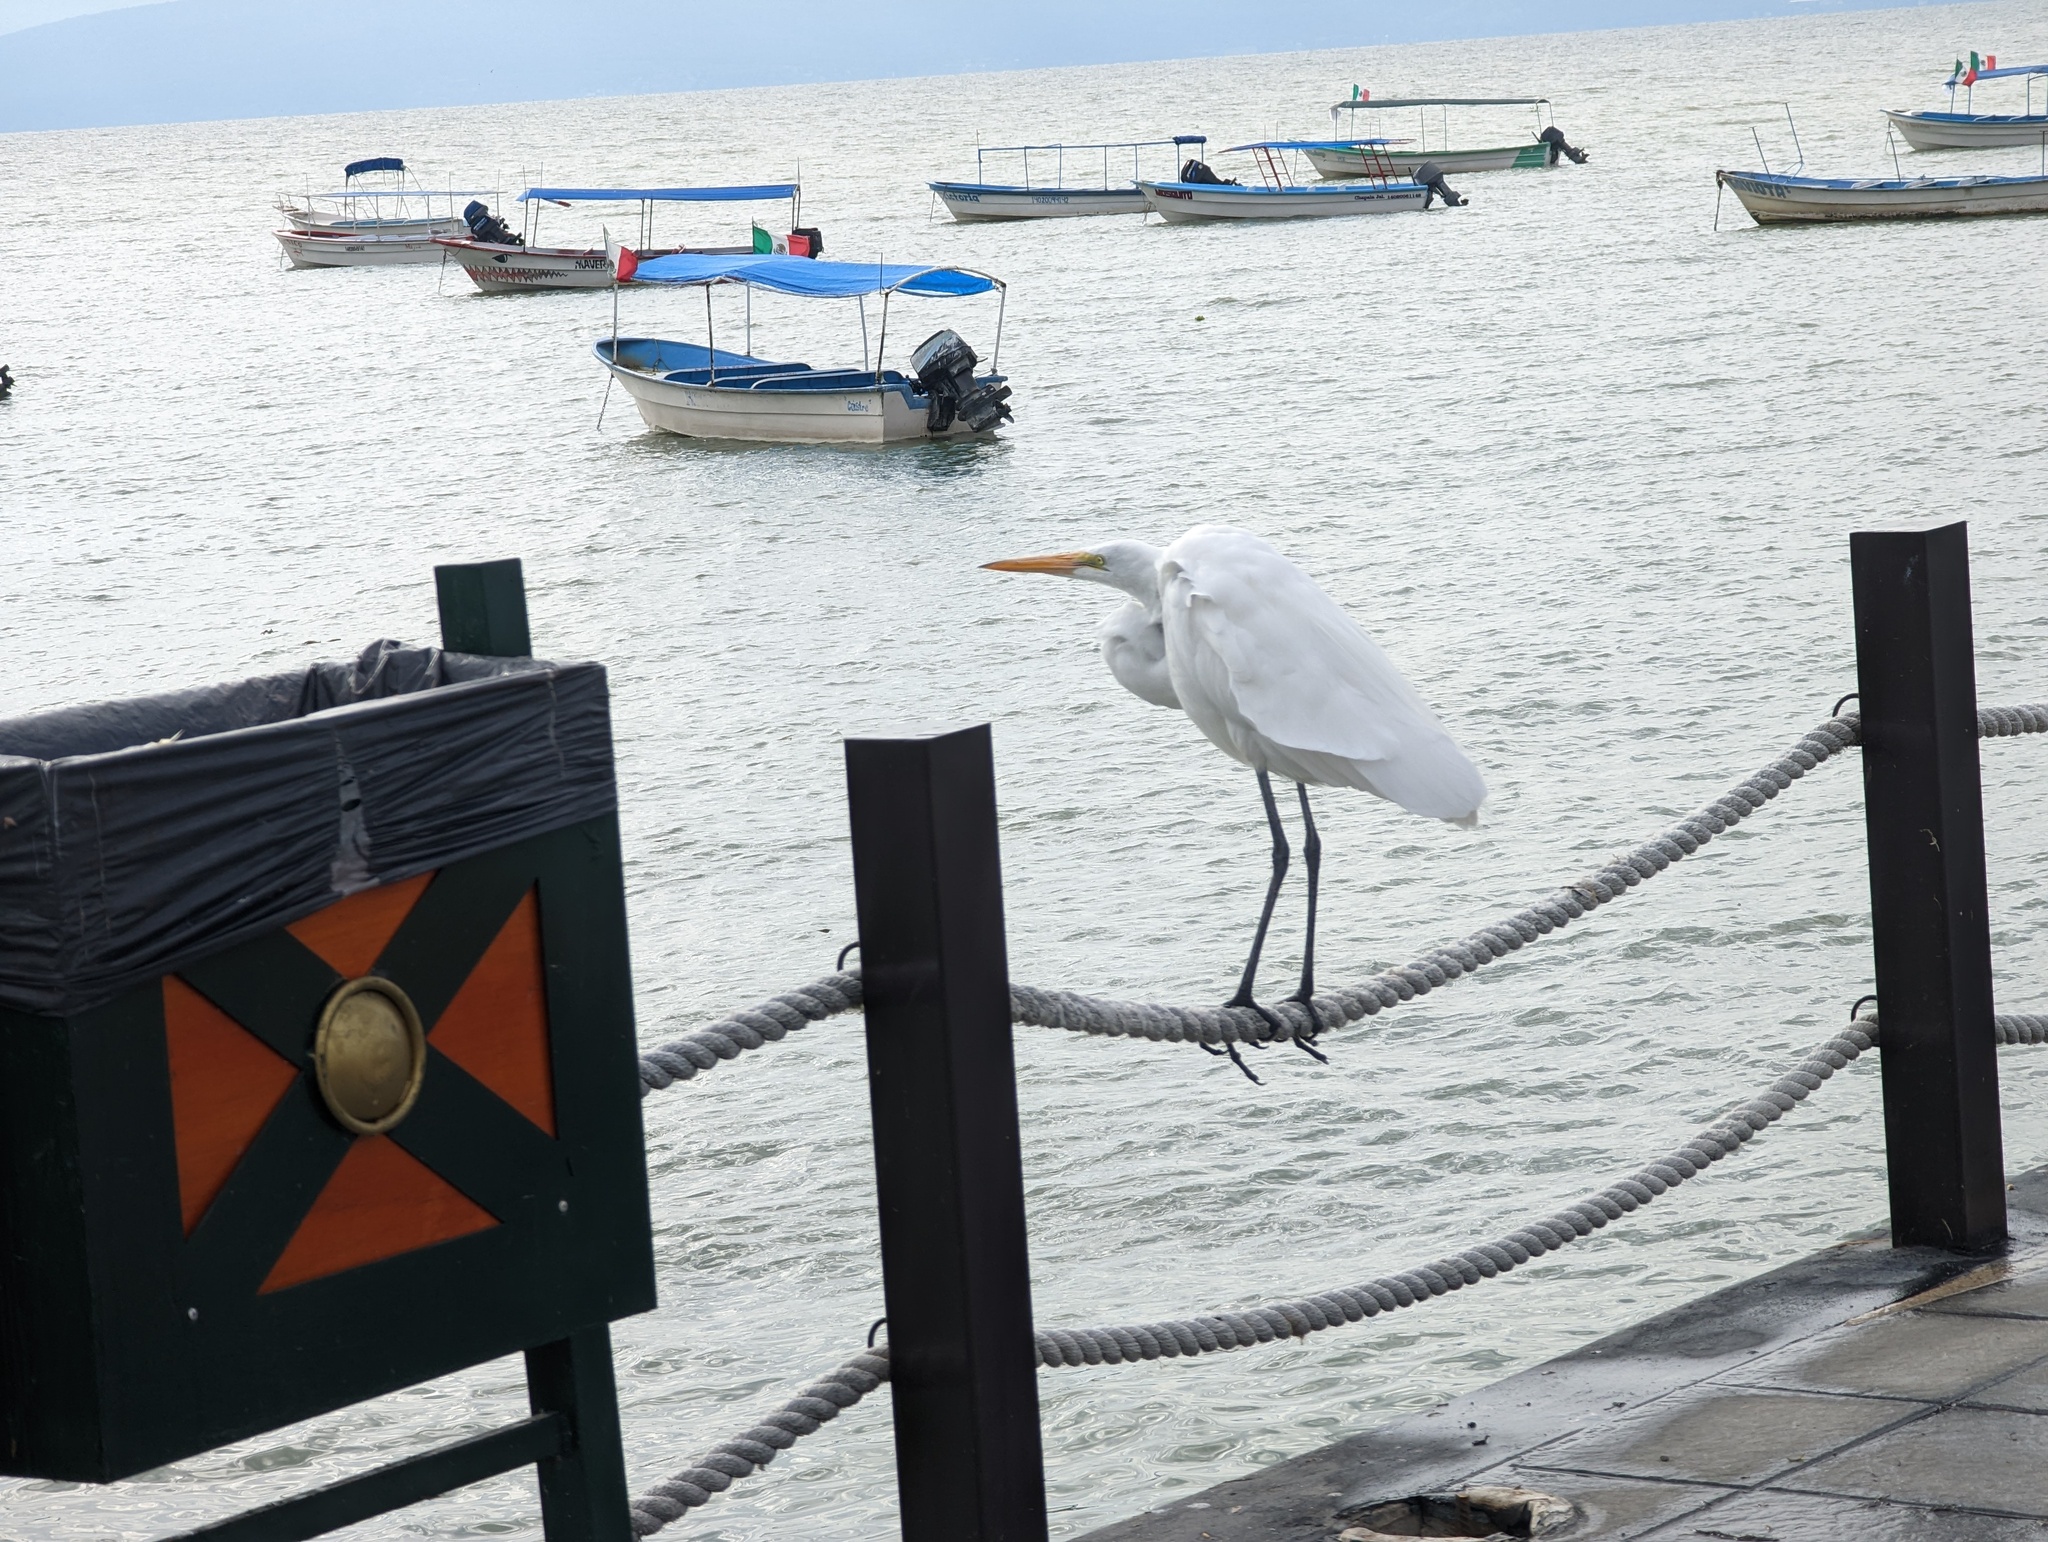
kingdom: Animalia
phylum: Chordata
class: Aves
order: Pelecaniformes
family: Ardeidae
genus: Ardea
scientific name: Ardea alba
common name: Great egret
